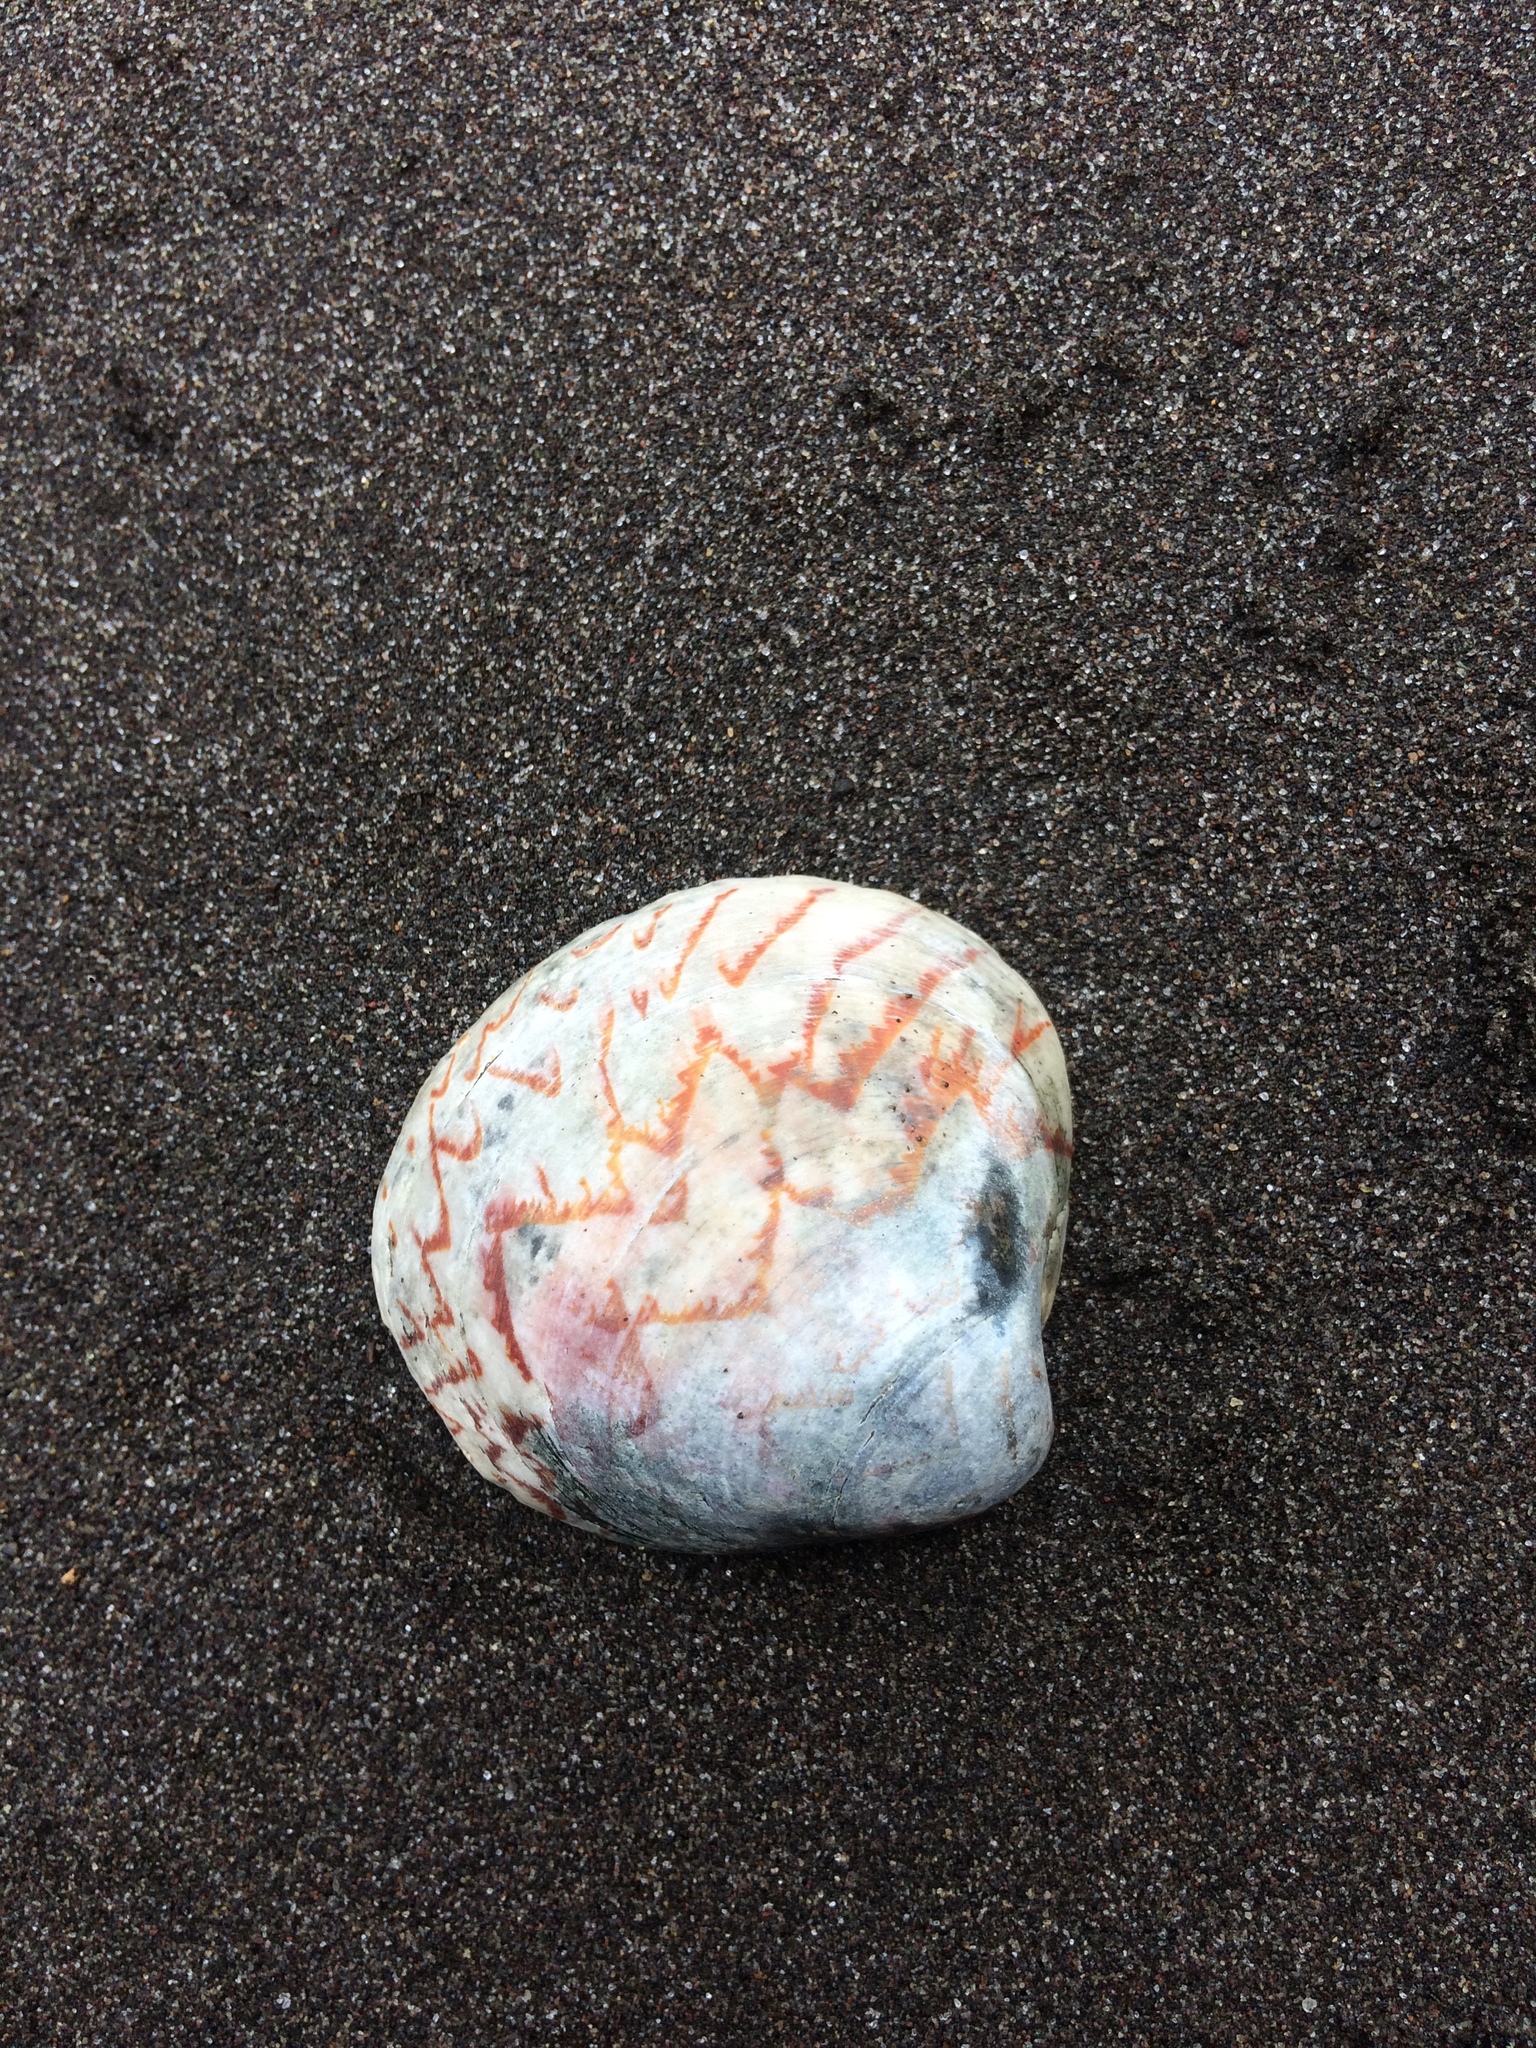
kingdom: Animalia
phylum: Mollusca
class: Bivalvia
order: Venerida
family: Veneridae
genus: Lioconcha
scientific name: Lioconcha castrensis
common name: Camp pitar-venus
